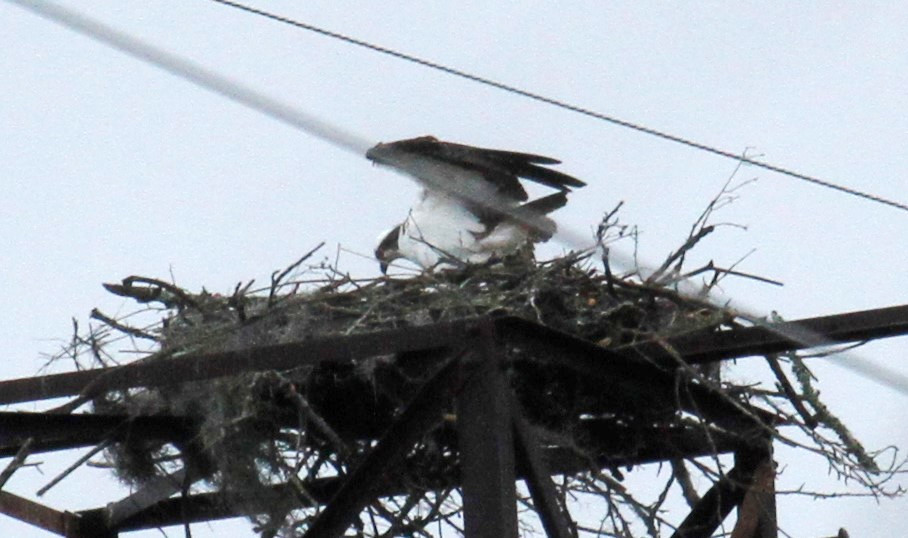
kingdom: Animalia
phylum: Chordata
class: Aves
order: Accipitriformes
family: Pandionidae
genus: Pandion
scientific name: Pandion haliaetus
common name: Osprey
